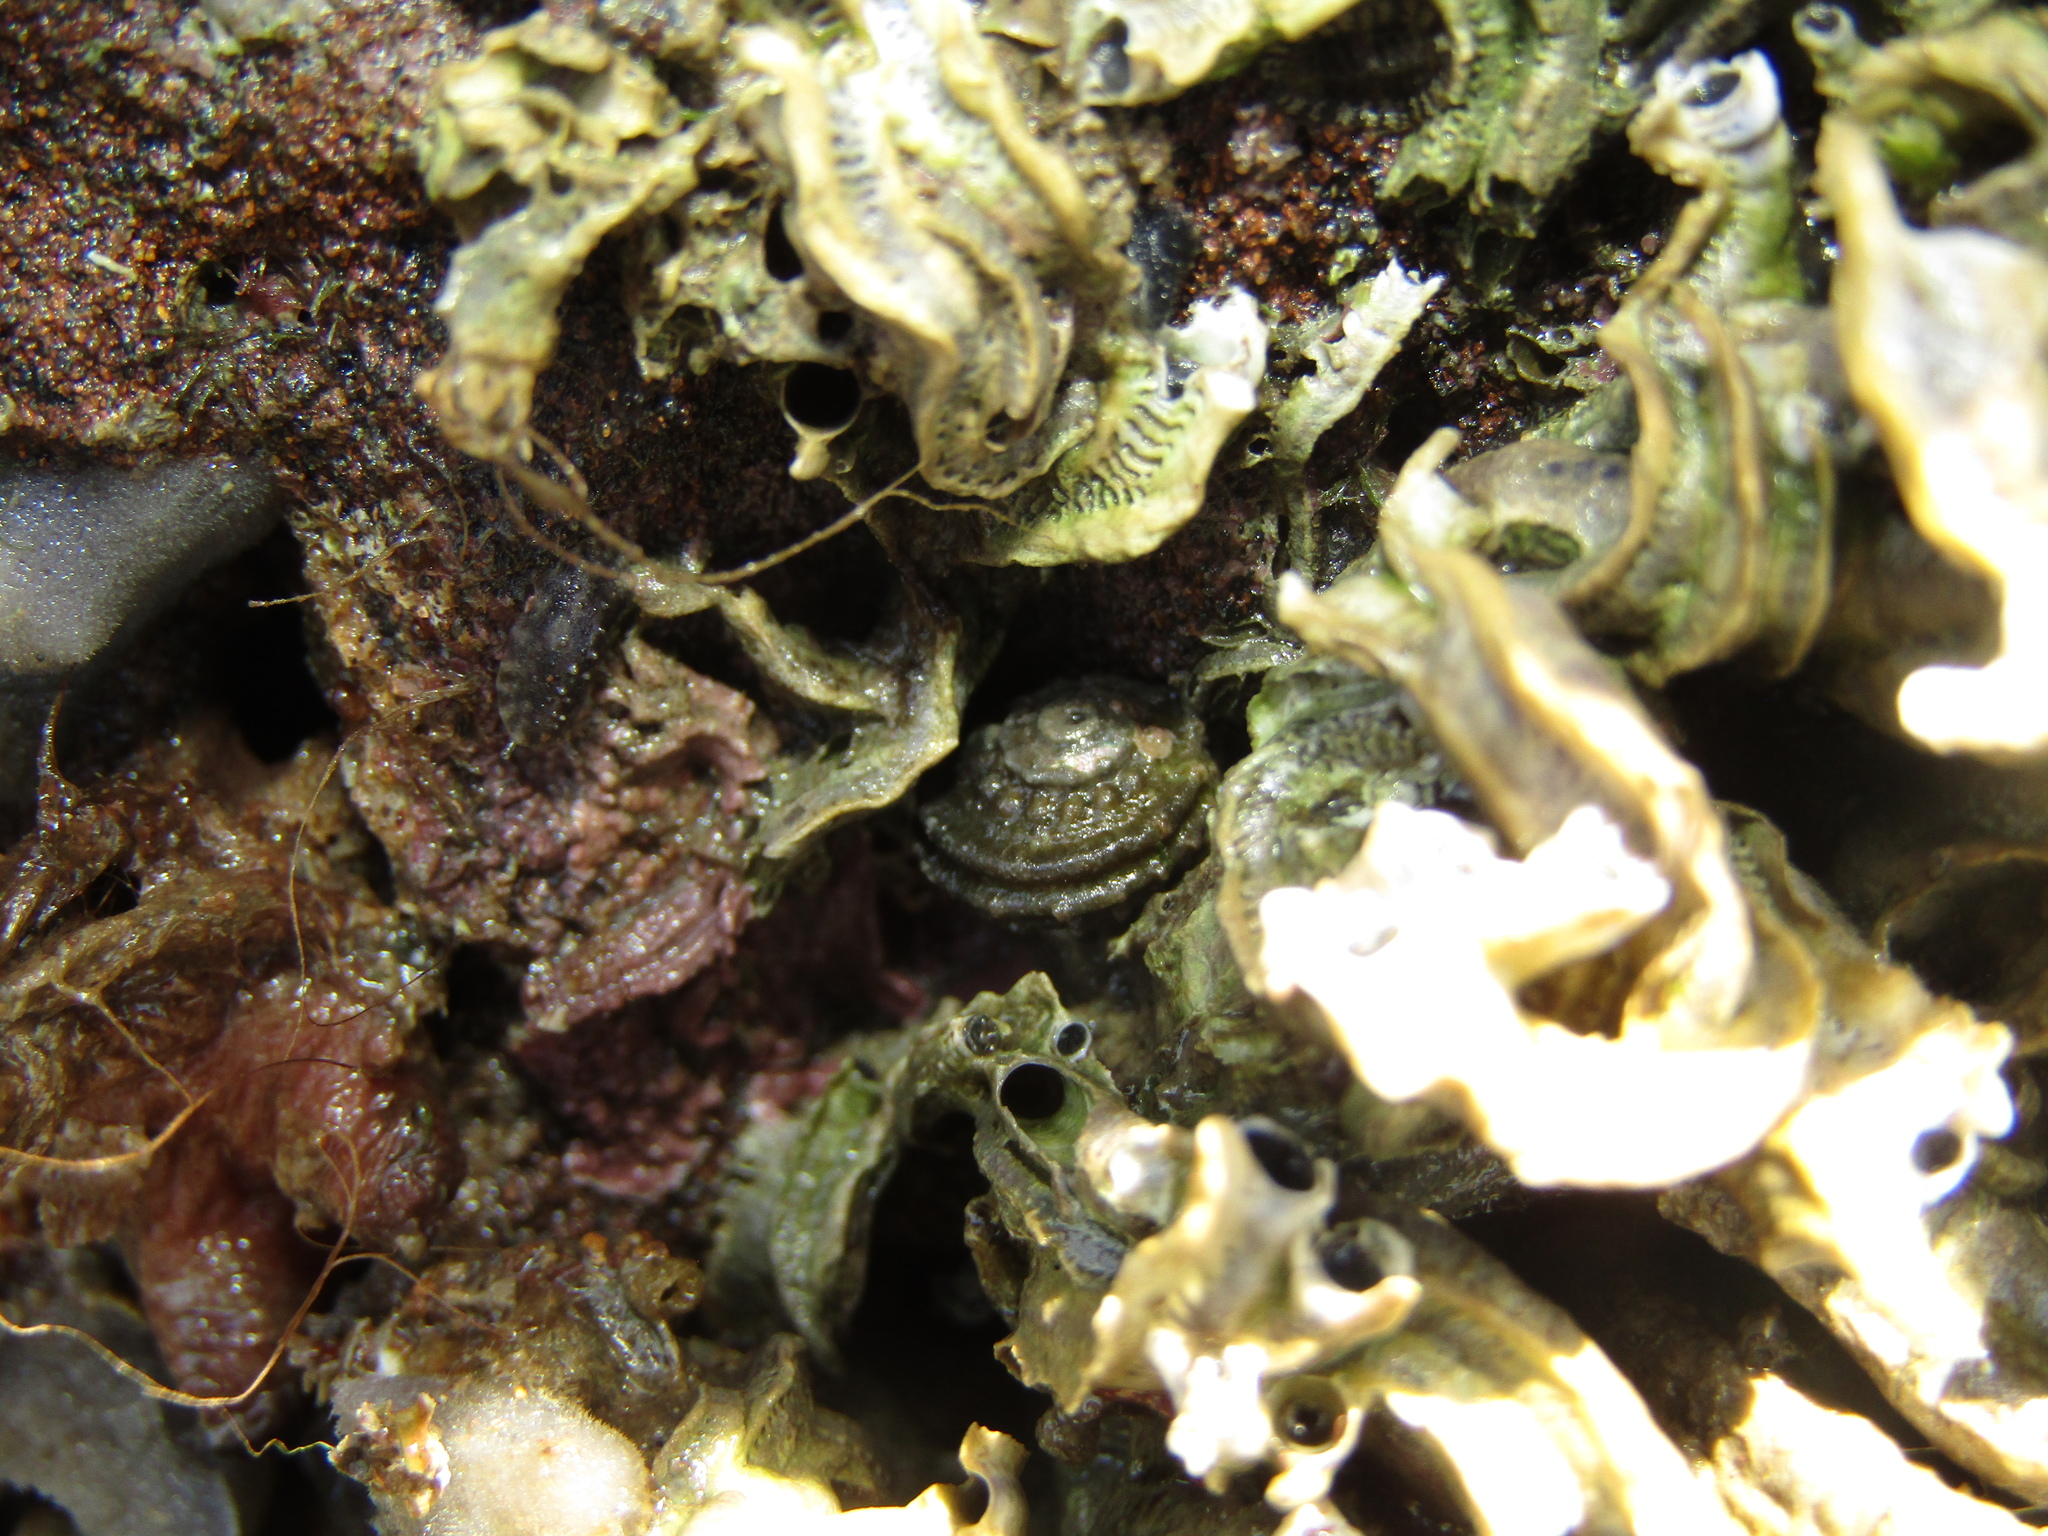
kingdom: Animalia
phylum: Mollusca
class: Gastropoda
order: Trochida
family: Turbinidae
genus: Lunella
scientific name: Lunella smaragda
